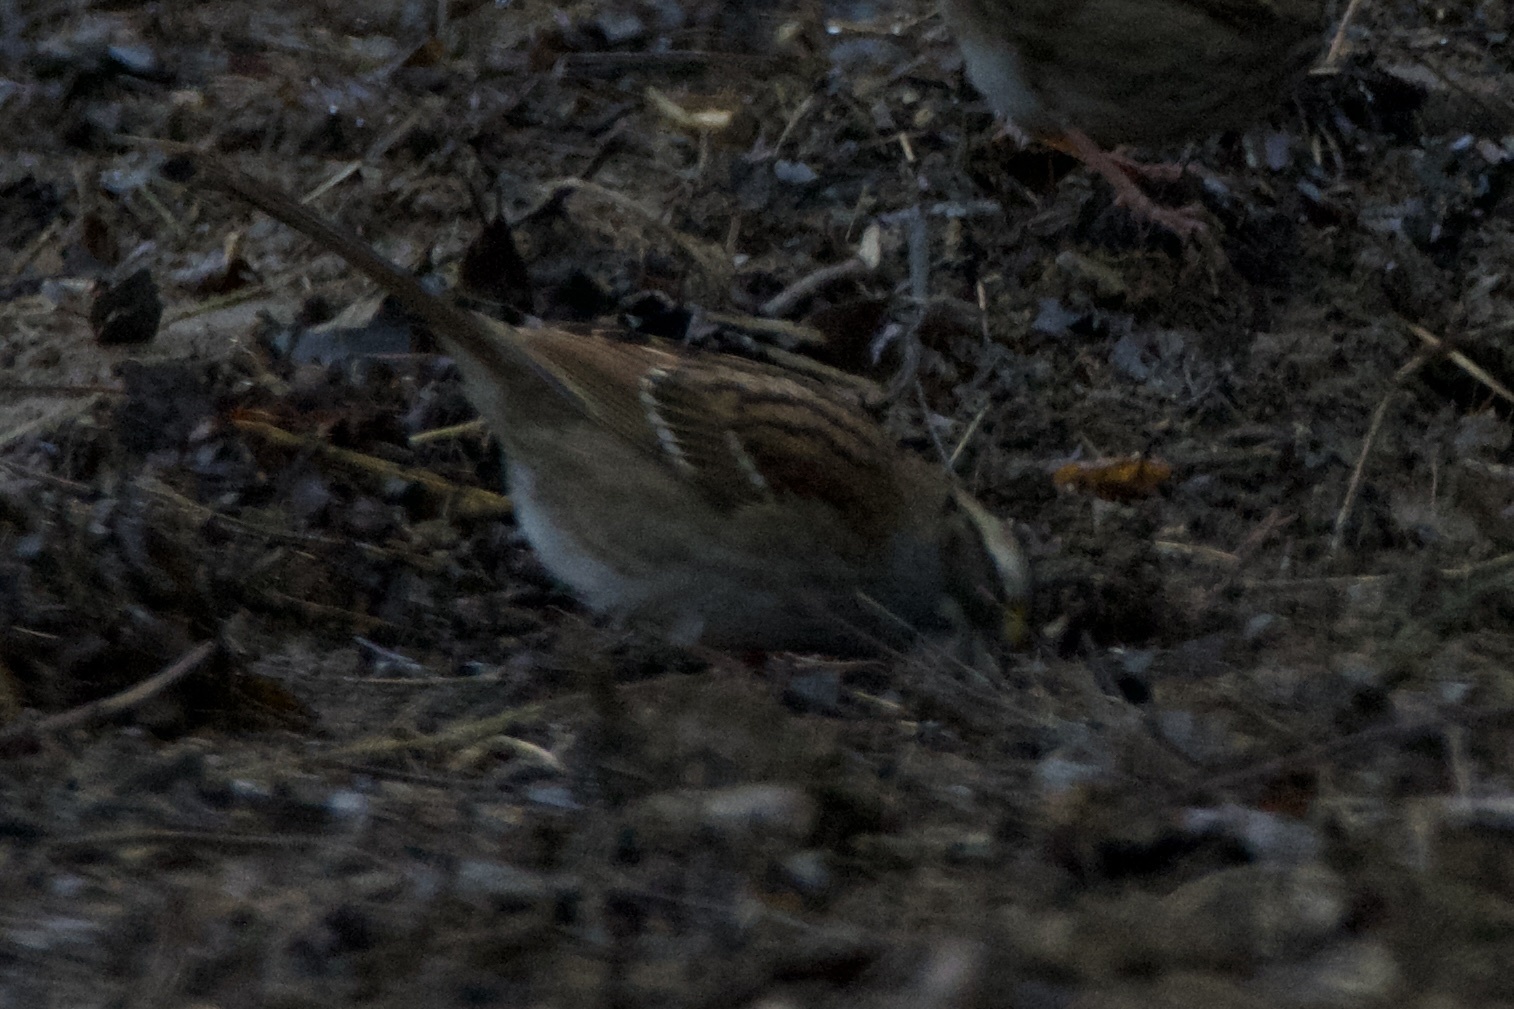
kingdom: Animalia
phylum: Chordata
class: Aves
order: Passeriformes
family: Passerellidae
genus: Zonotrichia
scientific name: Zonotrichia albicollis
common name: White-throated sparrow
